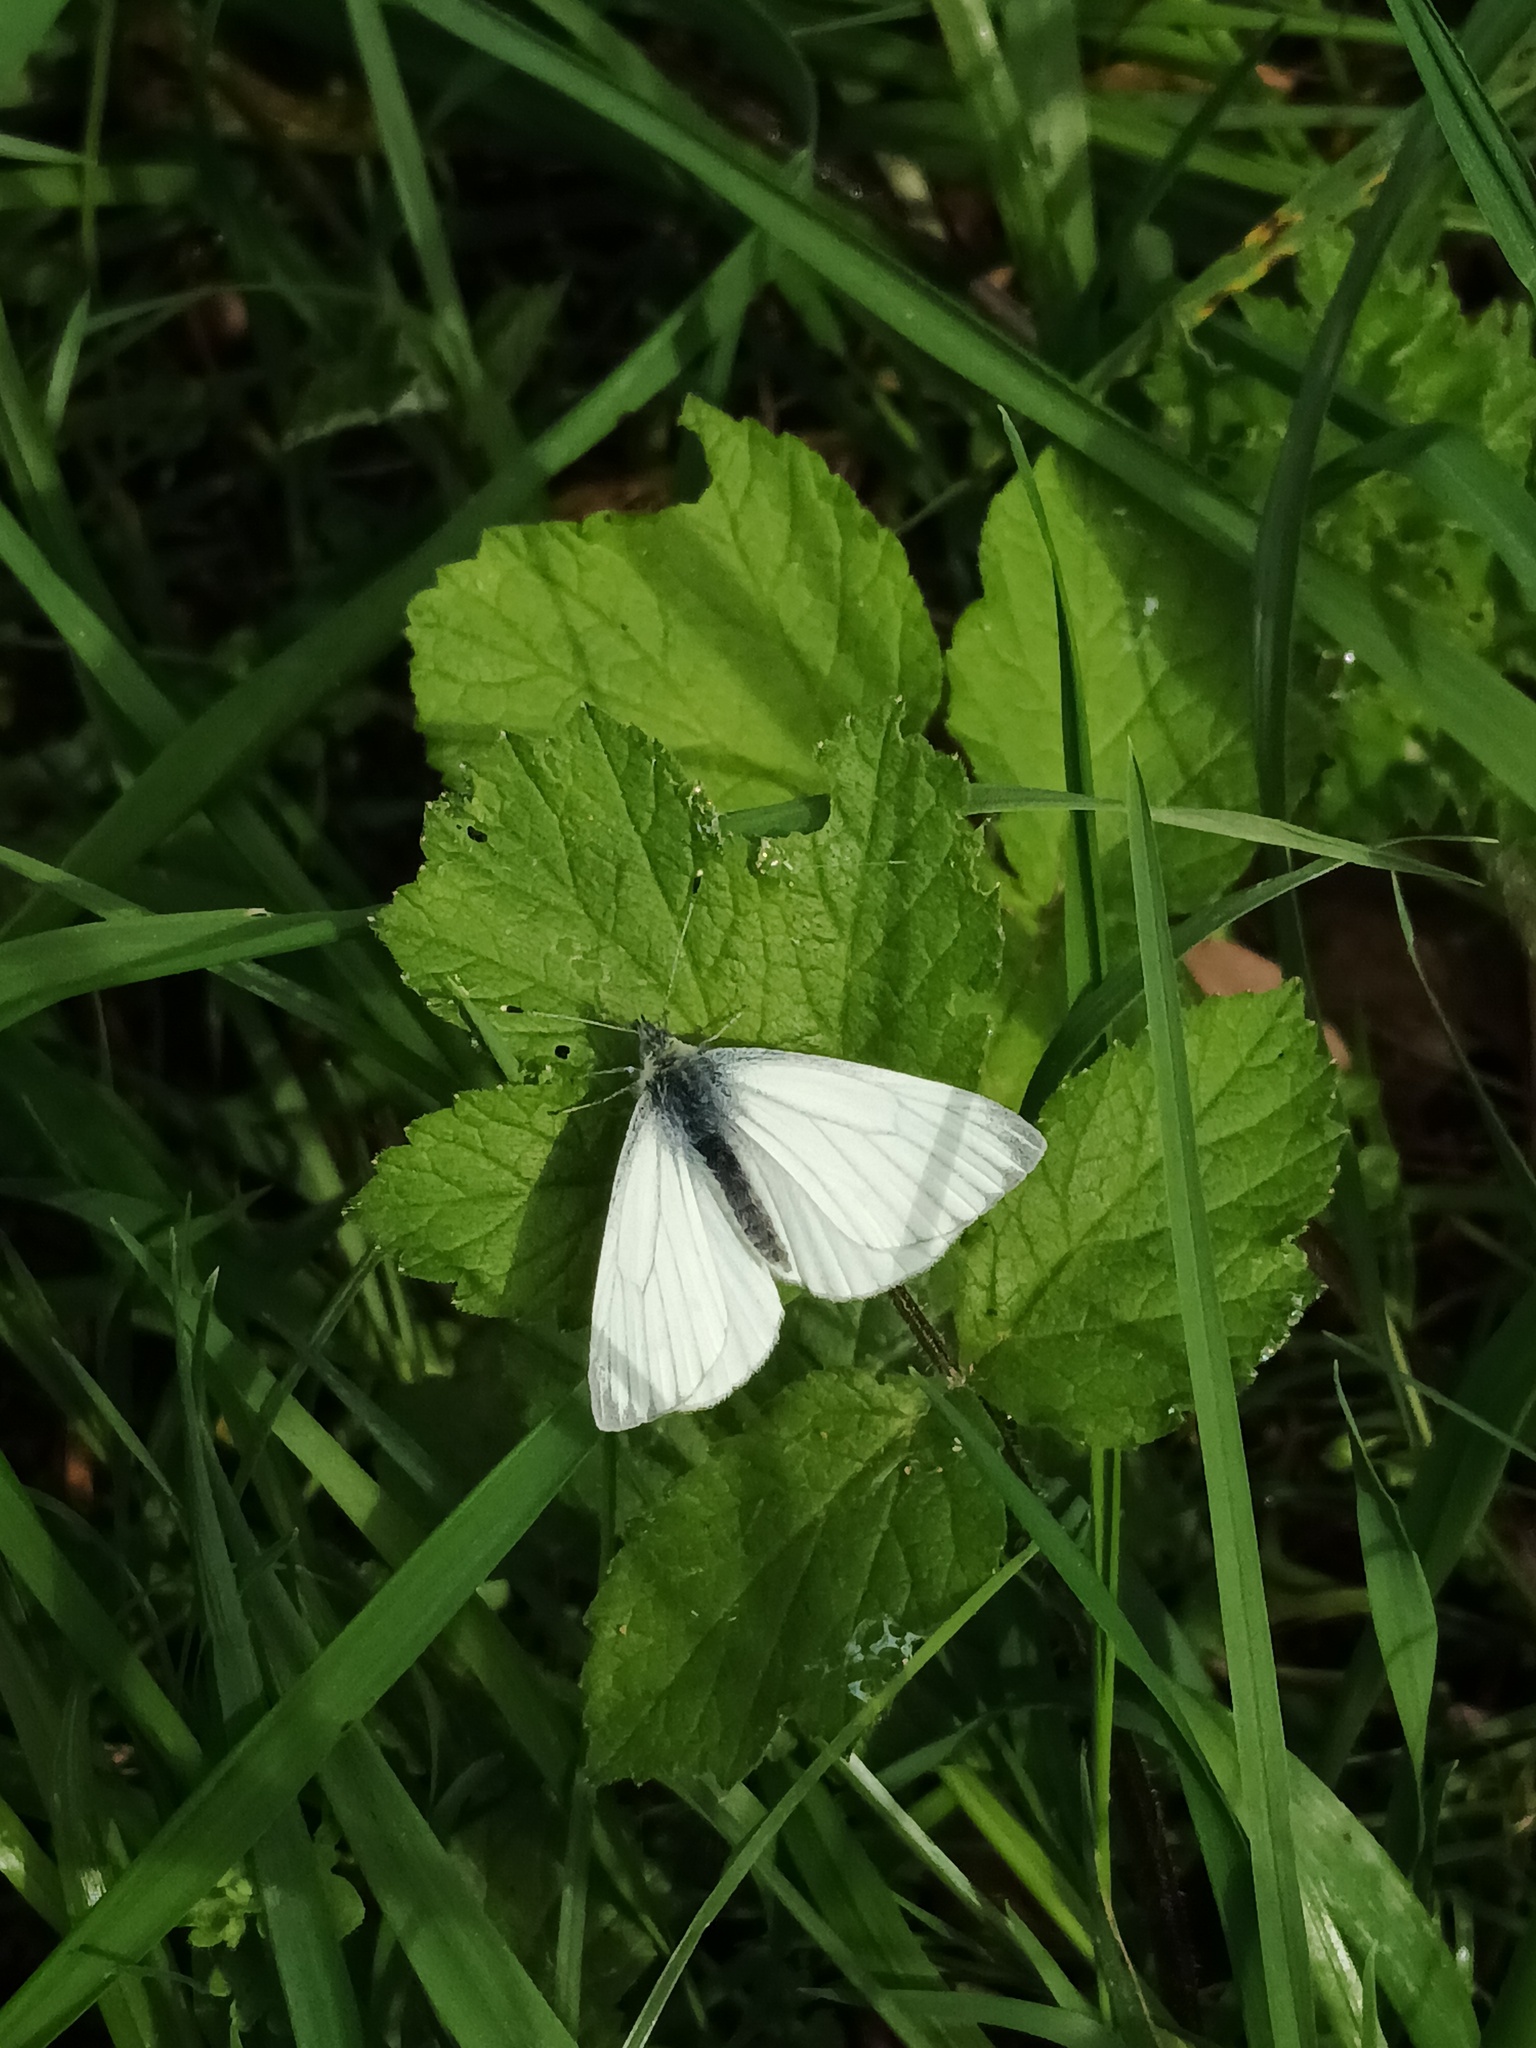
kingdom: Animalia
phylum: Arthropoda
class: Insecta
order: Lepidoptera
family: Pieridae
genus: Pieris
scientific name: Pieris napi
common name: Green-veined white
